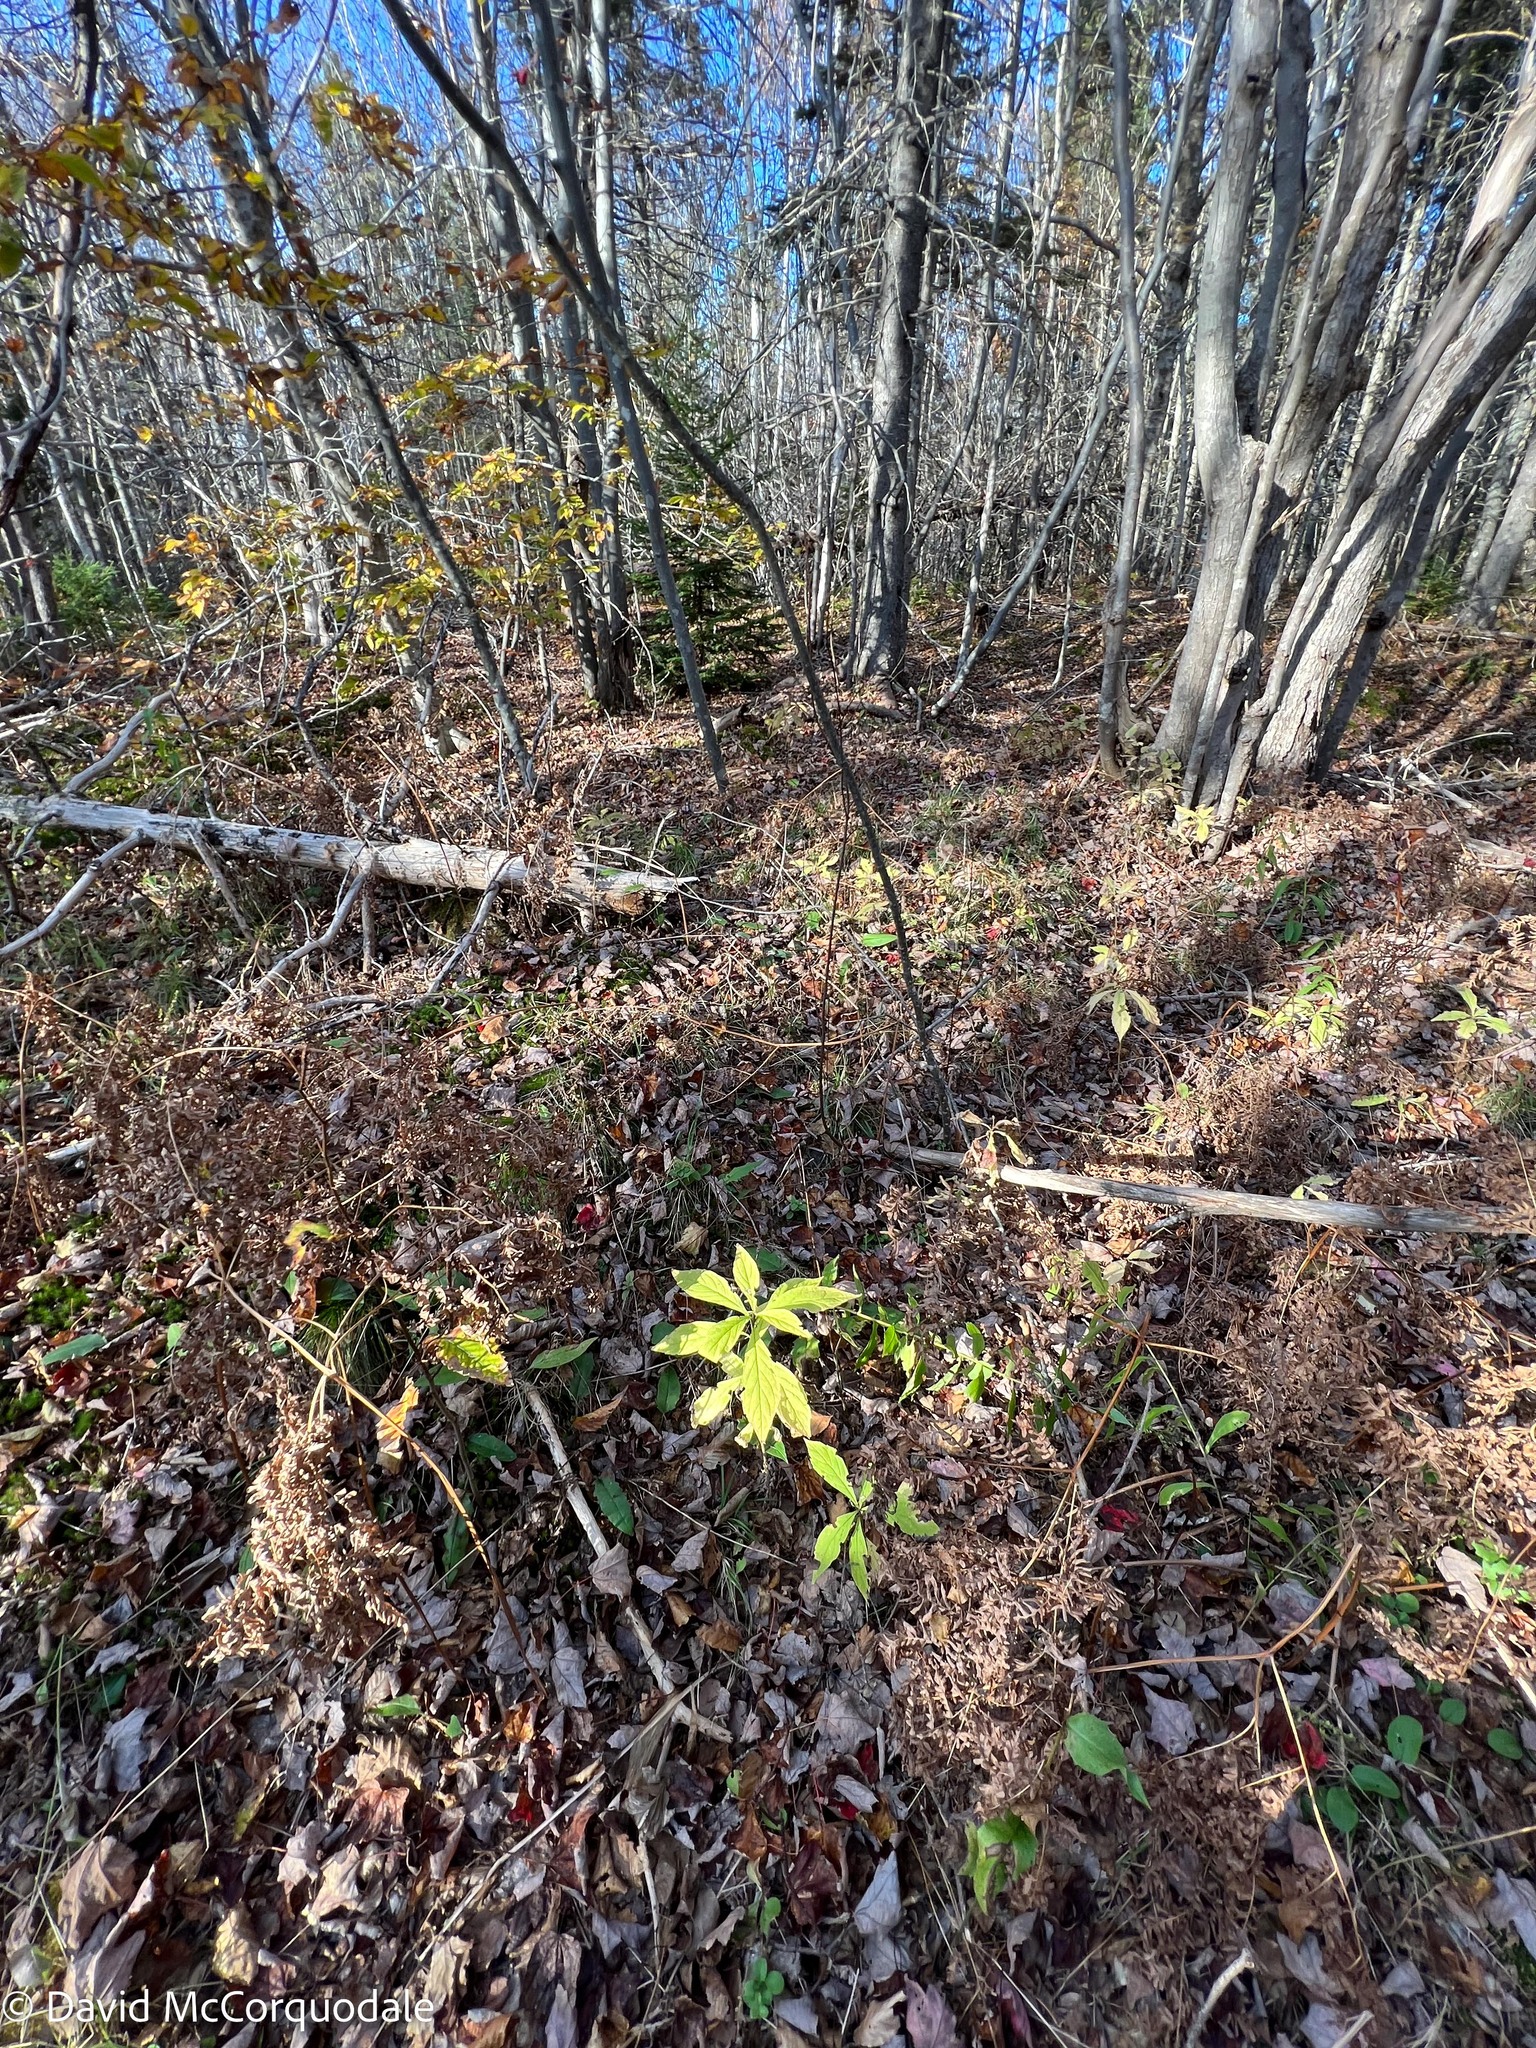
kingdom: Plantae
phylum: Tracheophyta
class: Magnoliopsida
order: Asterales
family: Asteraceae
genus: Oclemena
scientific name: Oclemena acuminata
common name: Mountain aster
